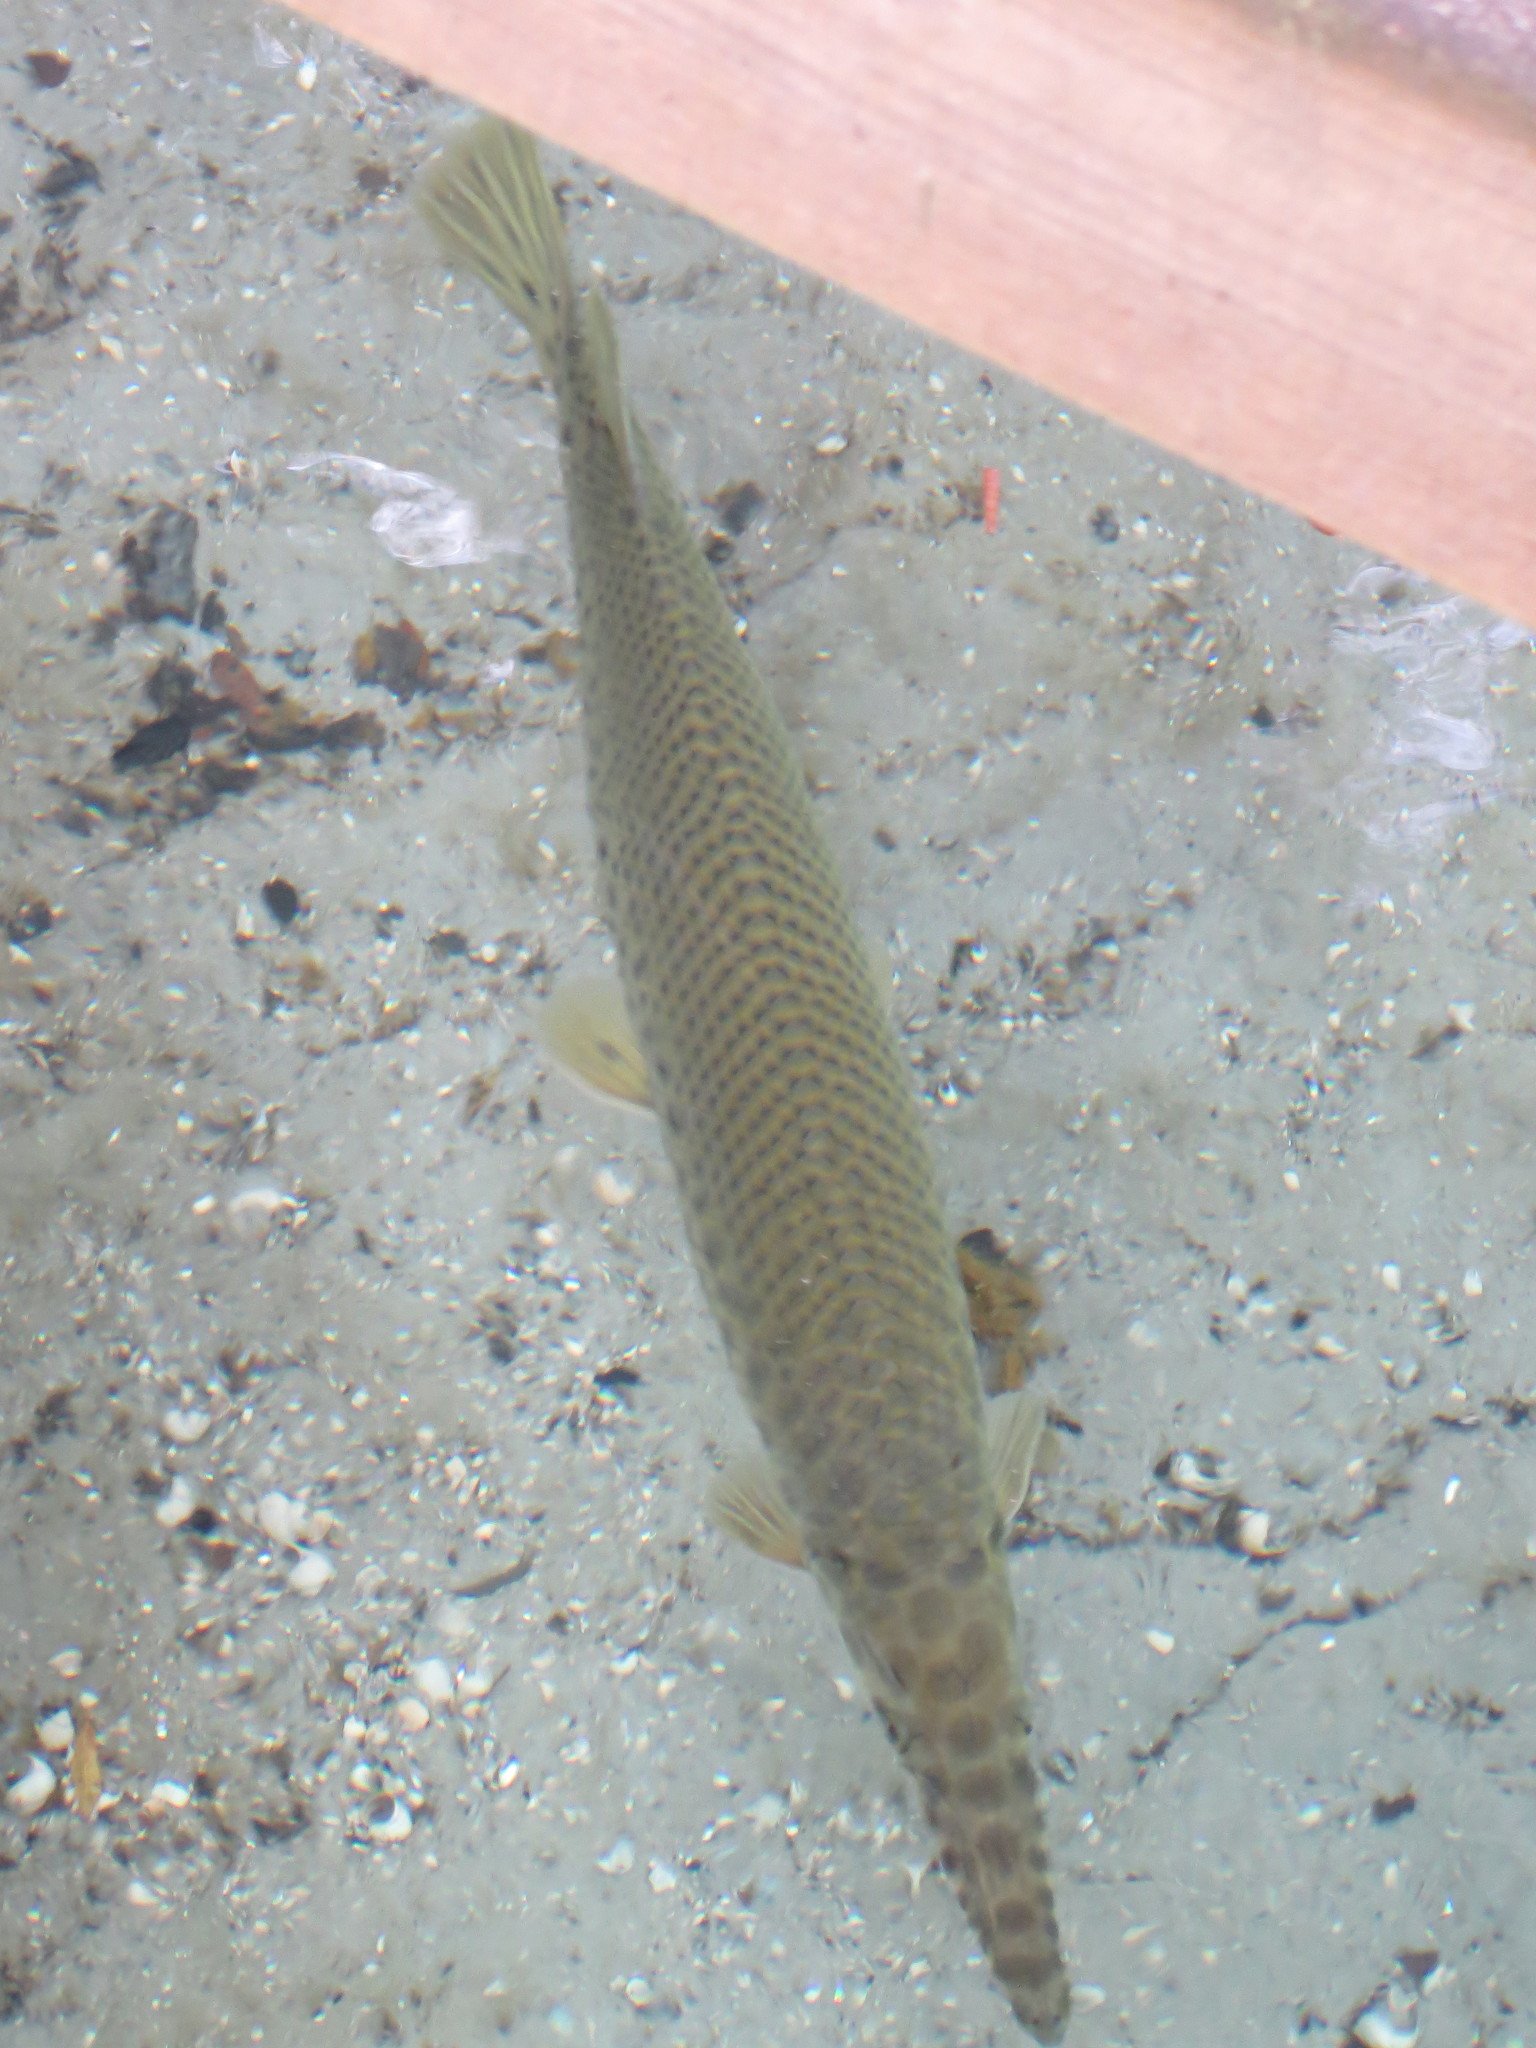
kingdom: Animalia
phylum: Chordata
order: Lepisosteiformes
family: Lepisosteidae
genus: Lepisosteus
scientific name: Lepisosteus platyrhincus
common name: Florida gar
